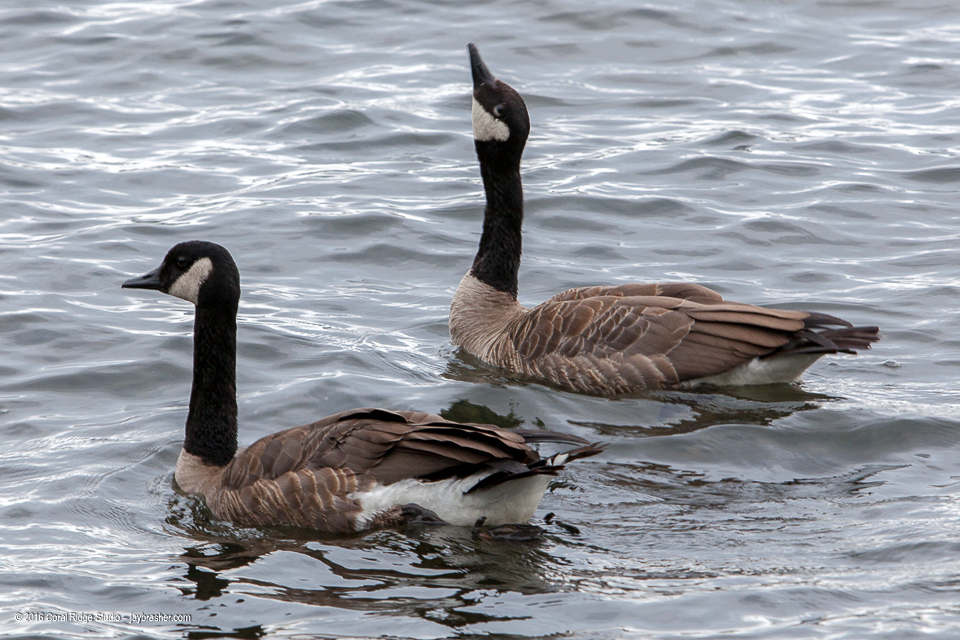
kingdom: Animalia
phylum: Chordata
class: Aves
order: Anseriformes
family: Anatidae
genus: Branta
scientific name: Branta canadensis
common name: Canada goose
